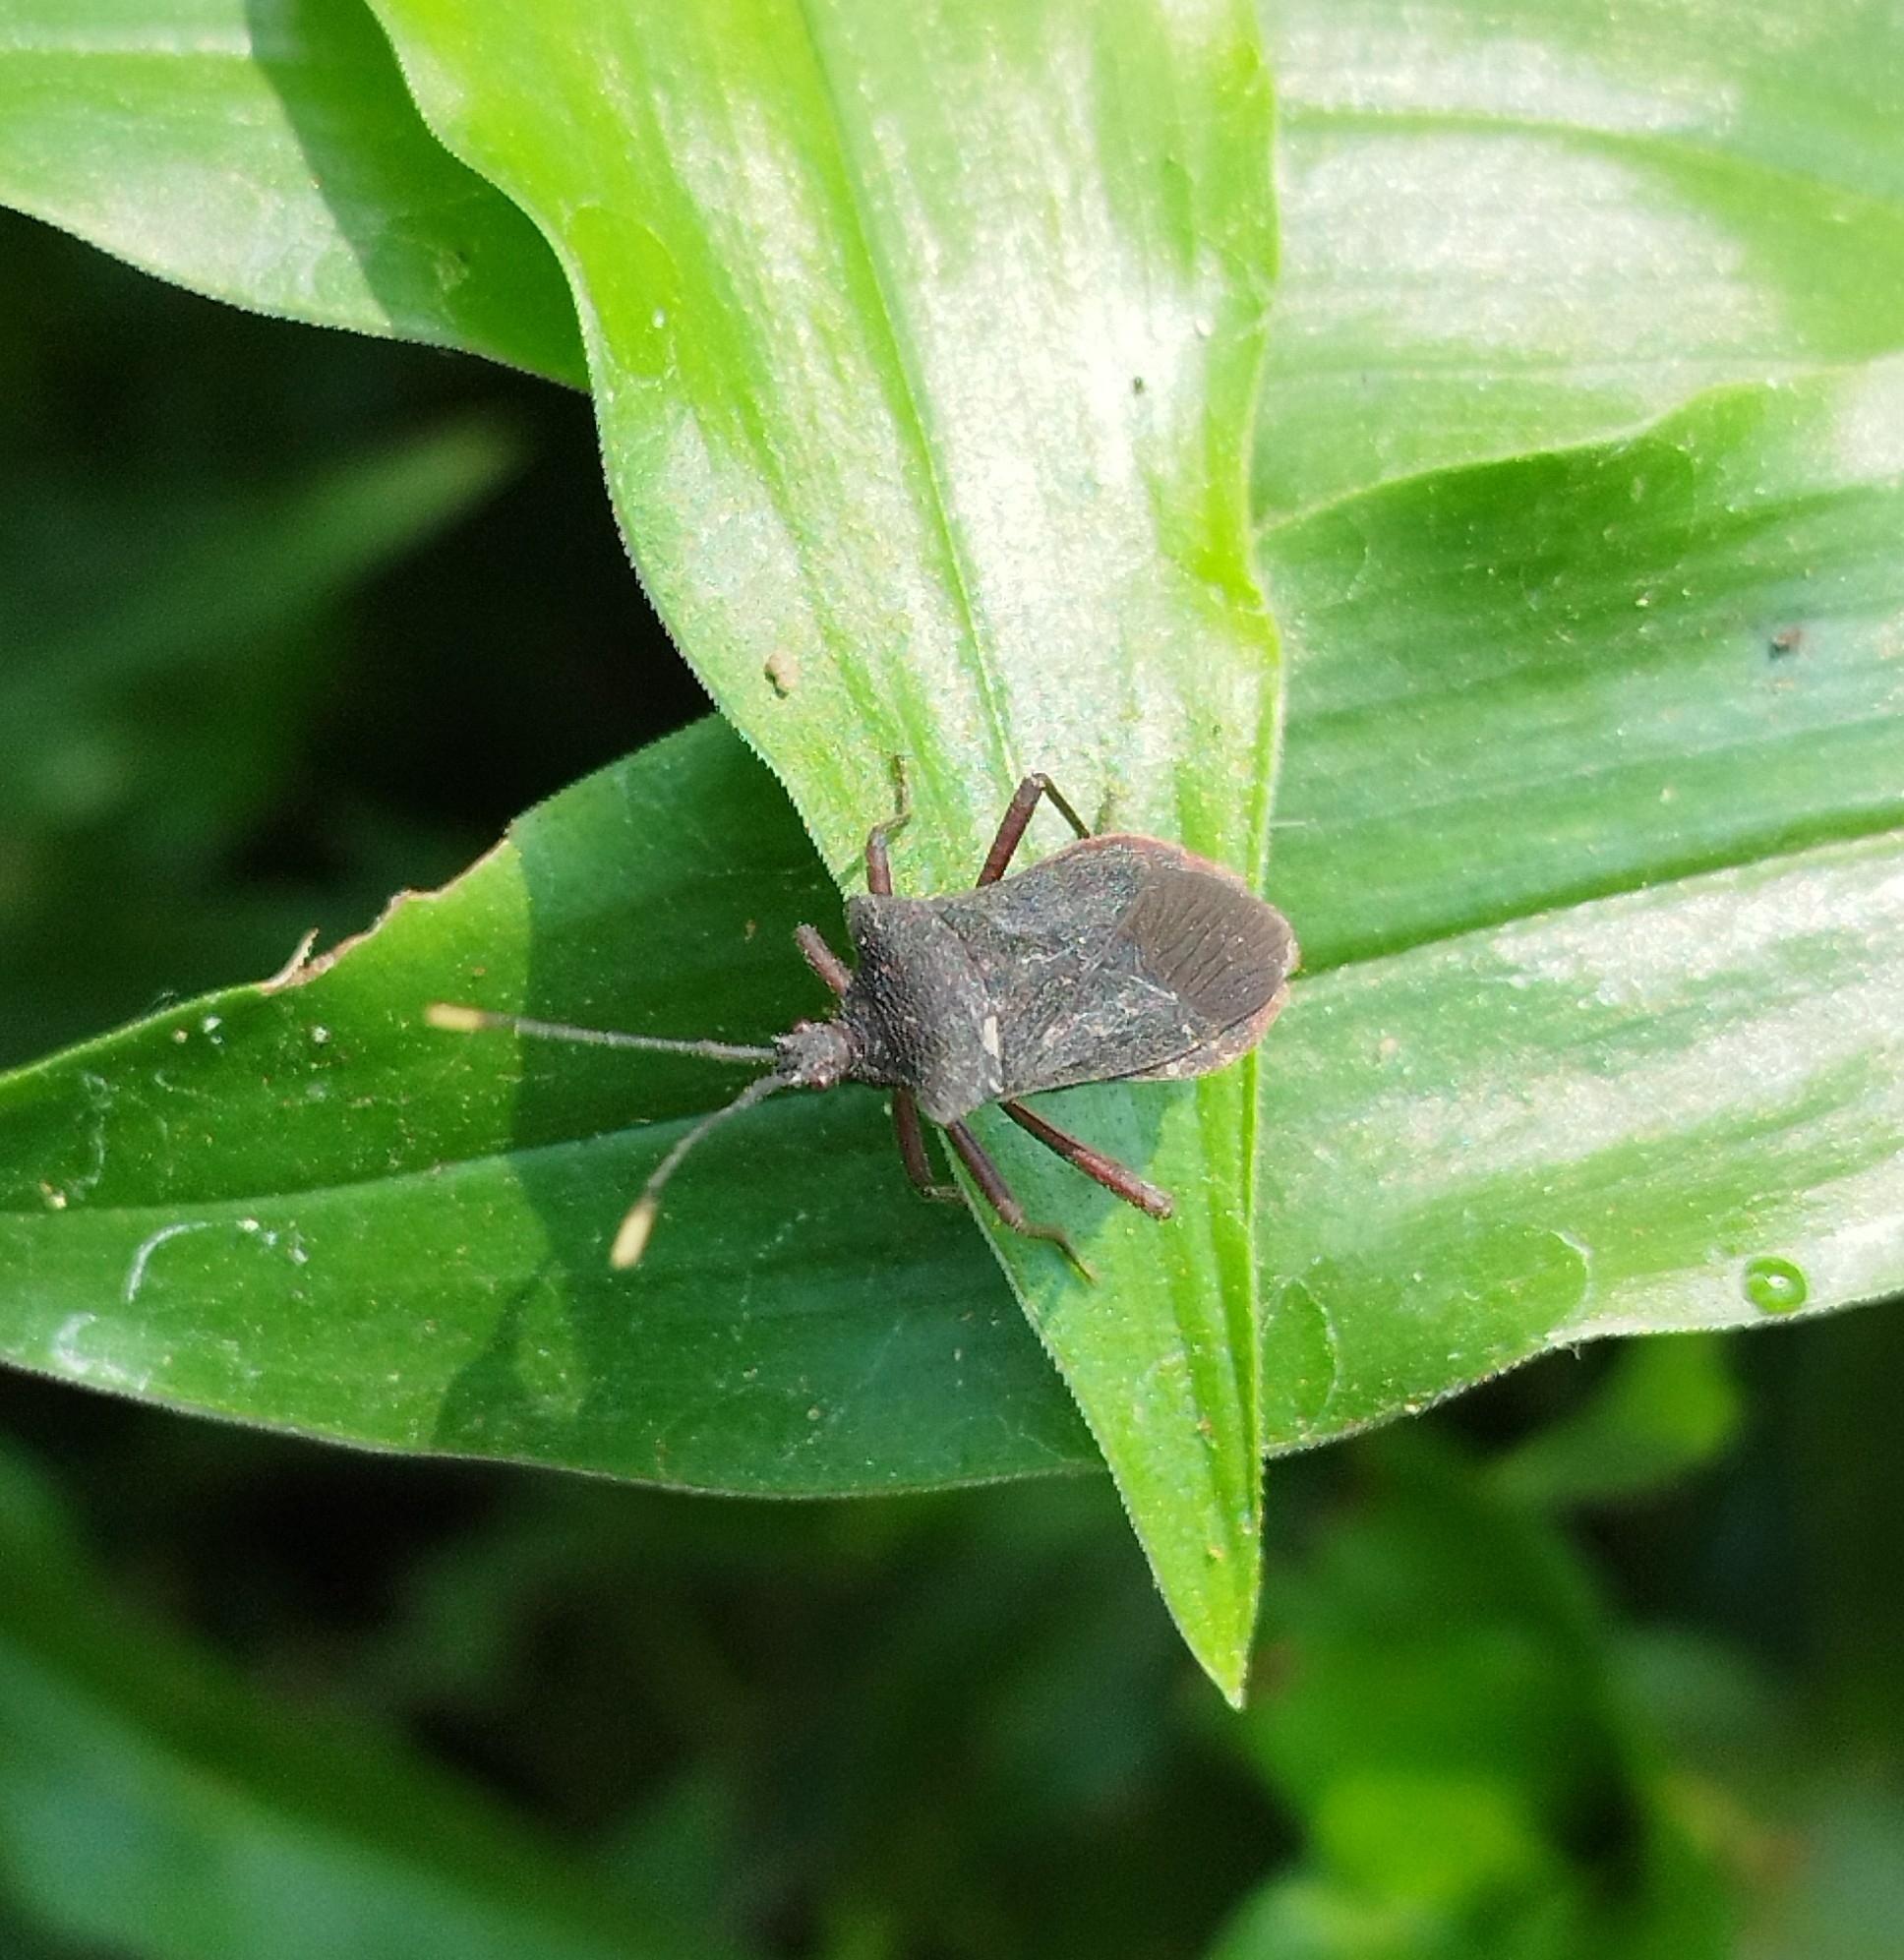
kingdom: Animalia
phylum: Arthropoda
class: Insecta
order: Hemiptera
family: Coreidae
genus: Anasa
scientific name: Anasa apicalis
